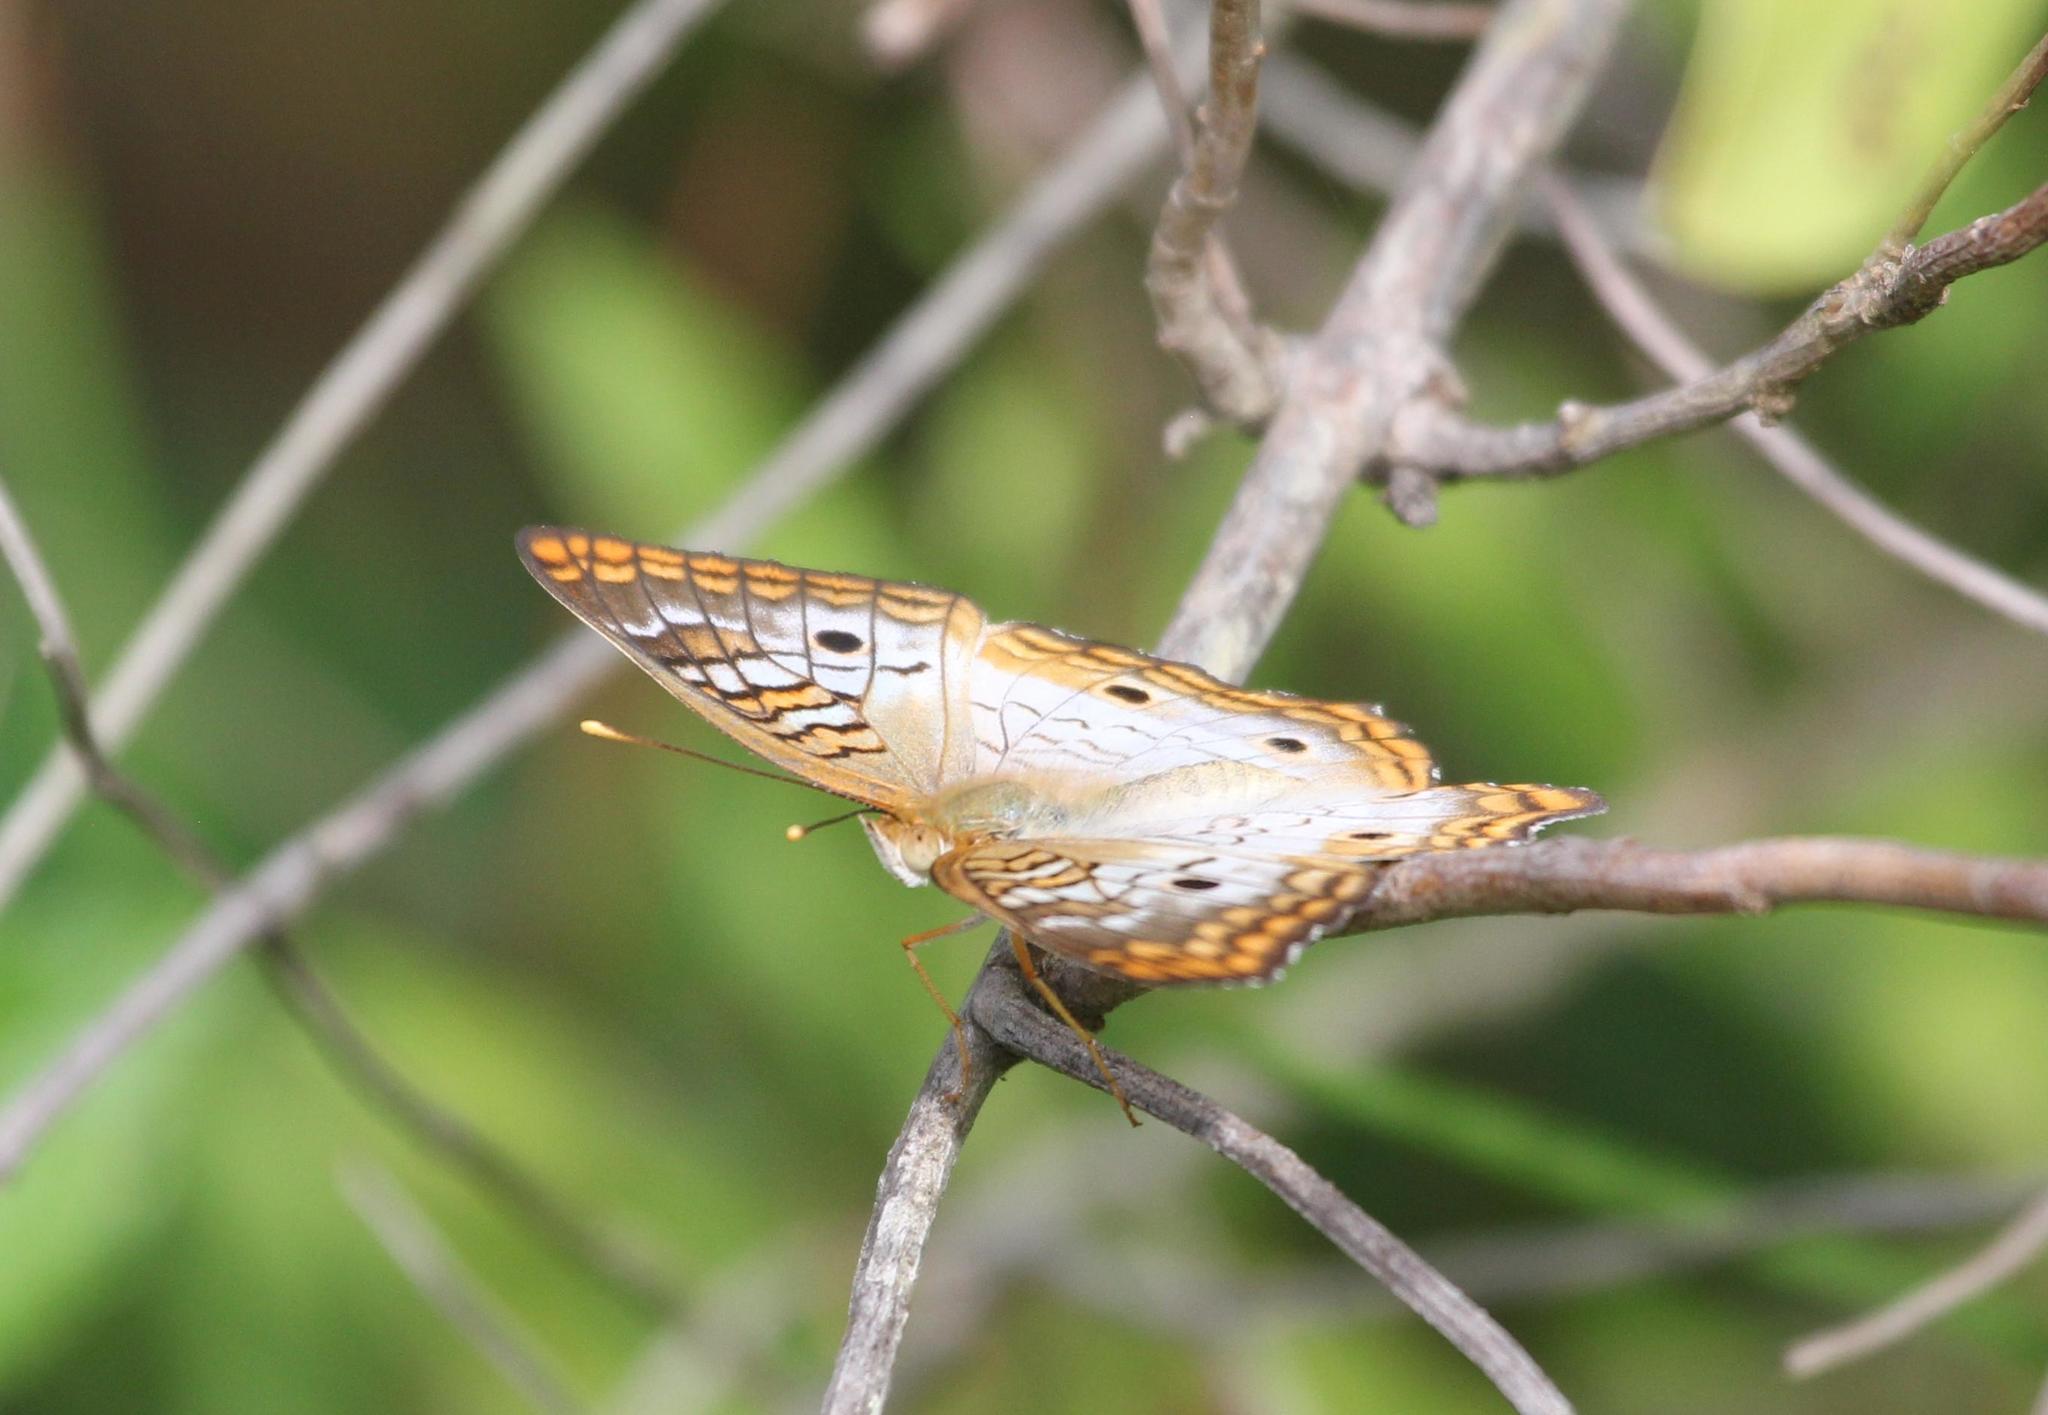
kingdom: Animalia
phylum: Arthropoda
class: Insecta
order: Lepidoptera
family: Nymphalidae
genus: Anartia
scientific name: Anartia jatrophae
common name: White peacock
